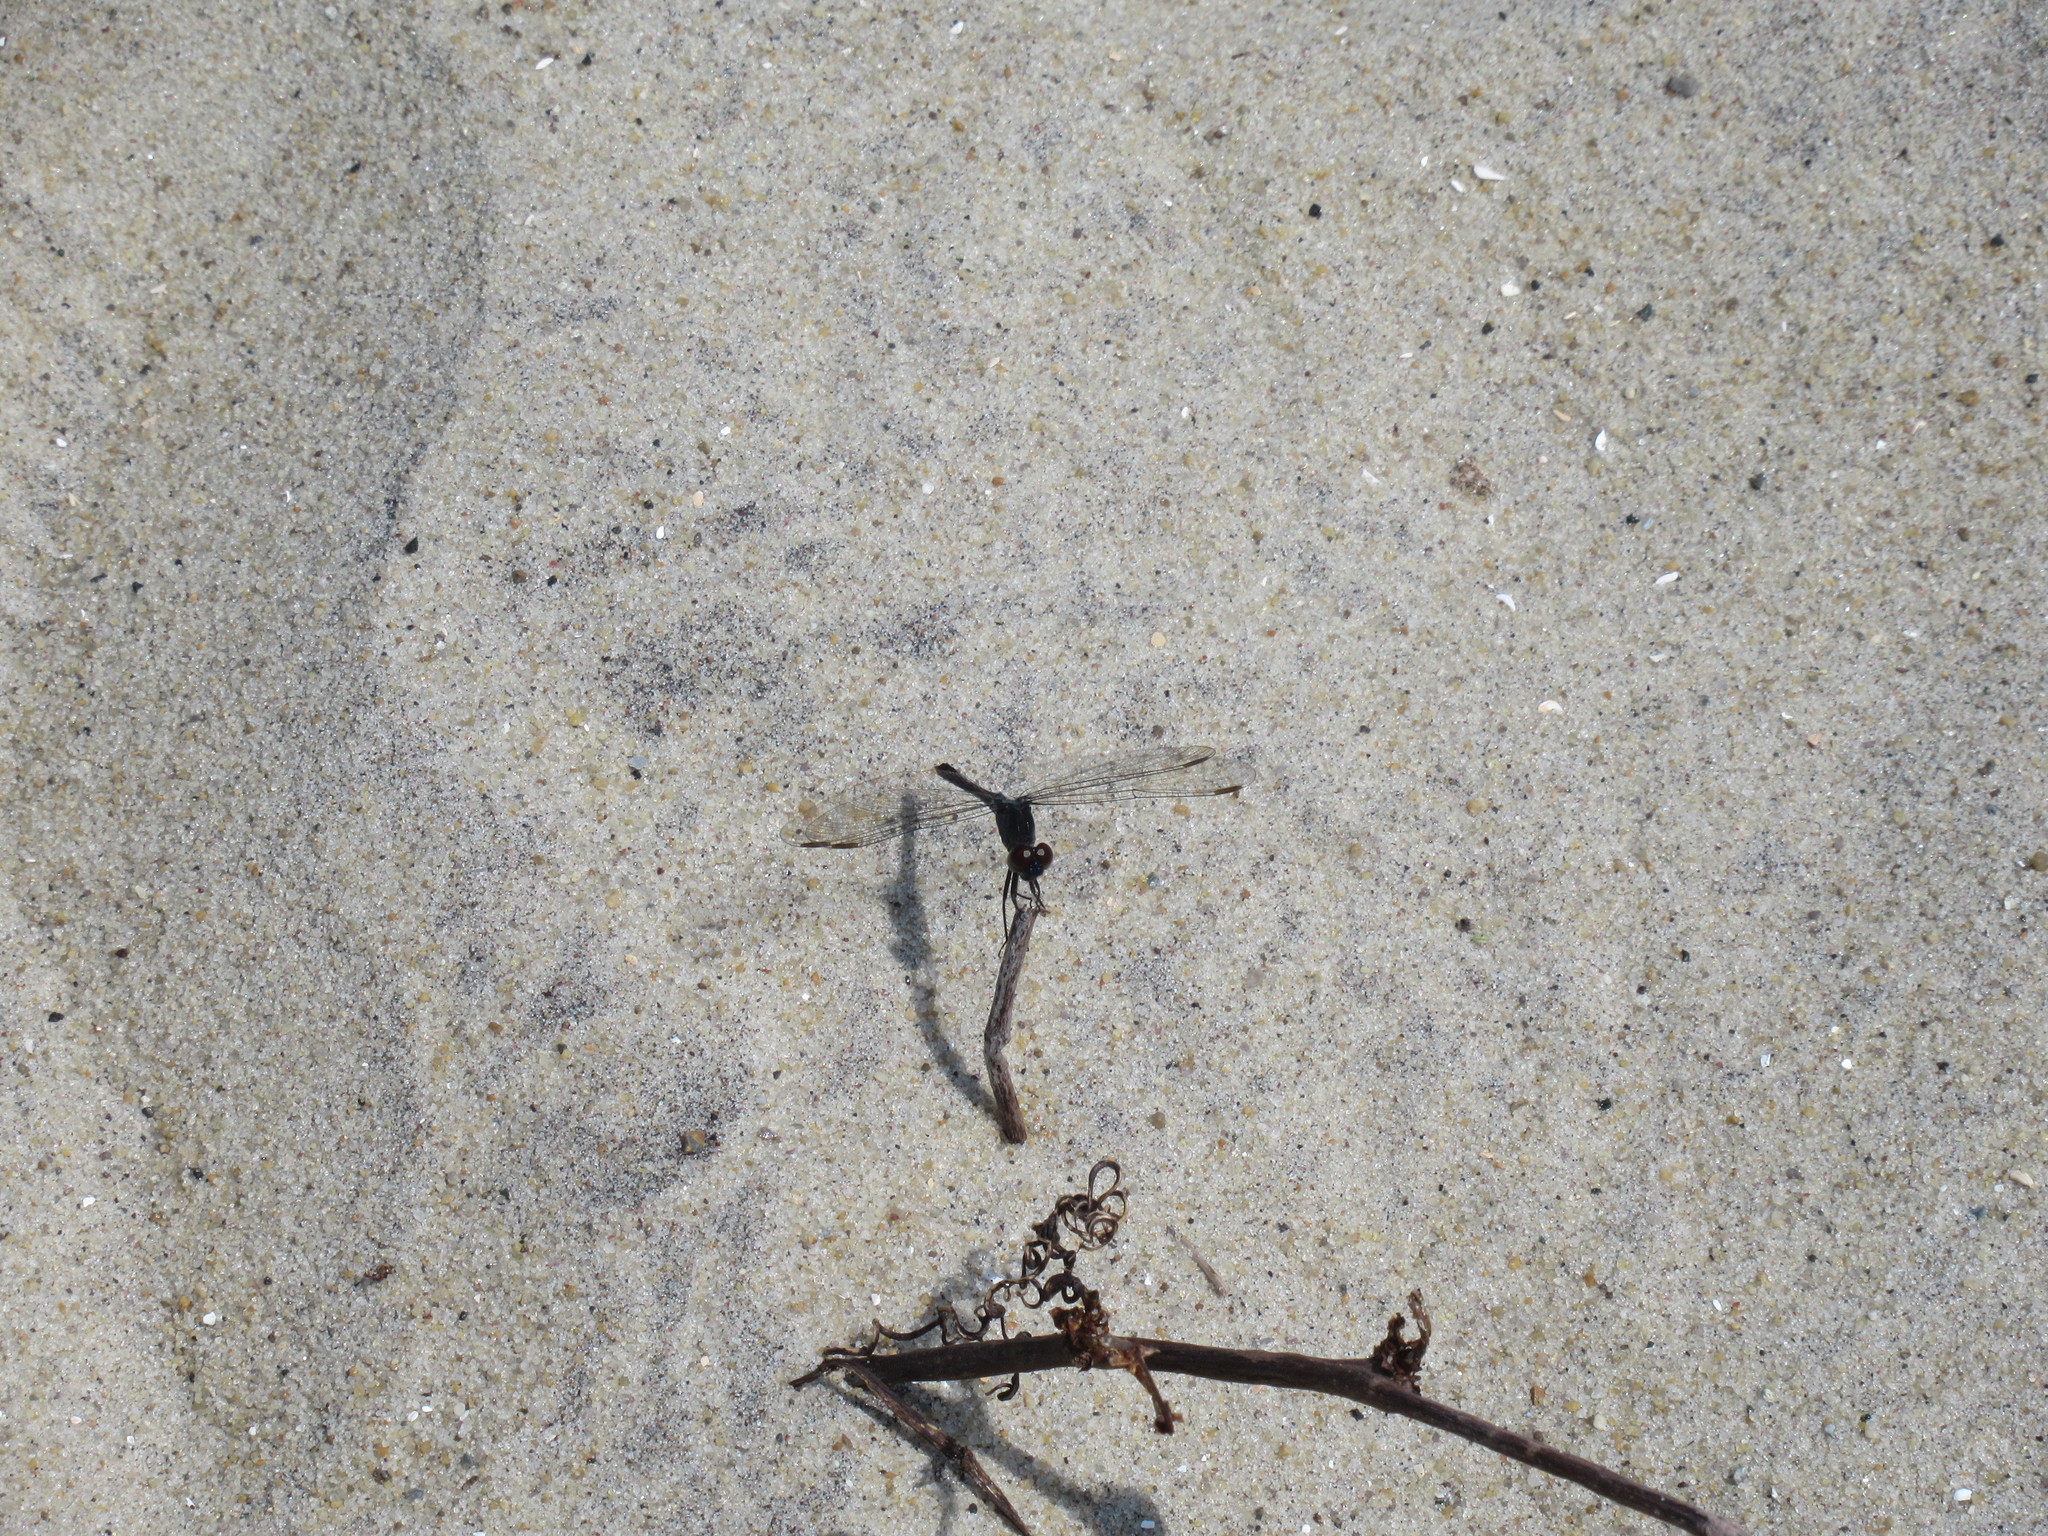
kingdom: Animalia
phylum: Arthropoda
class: Insecta
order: Odonata
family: Libellulidae
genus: Erythrodiplax
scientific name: Erythrodiplax berenice
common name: Seaside dragonlet
